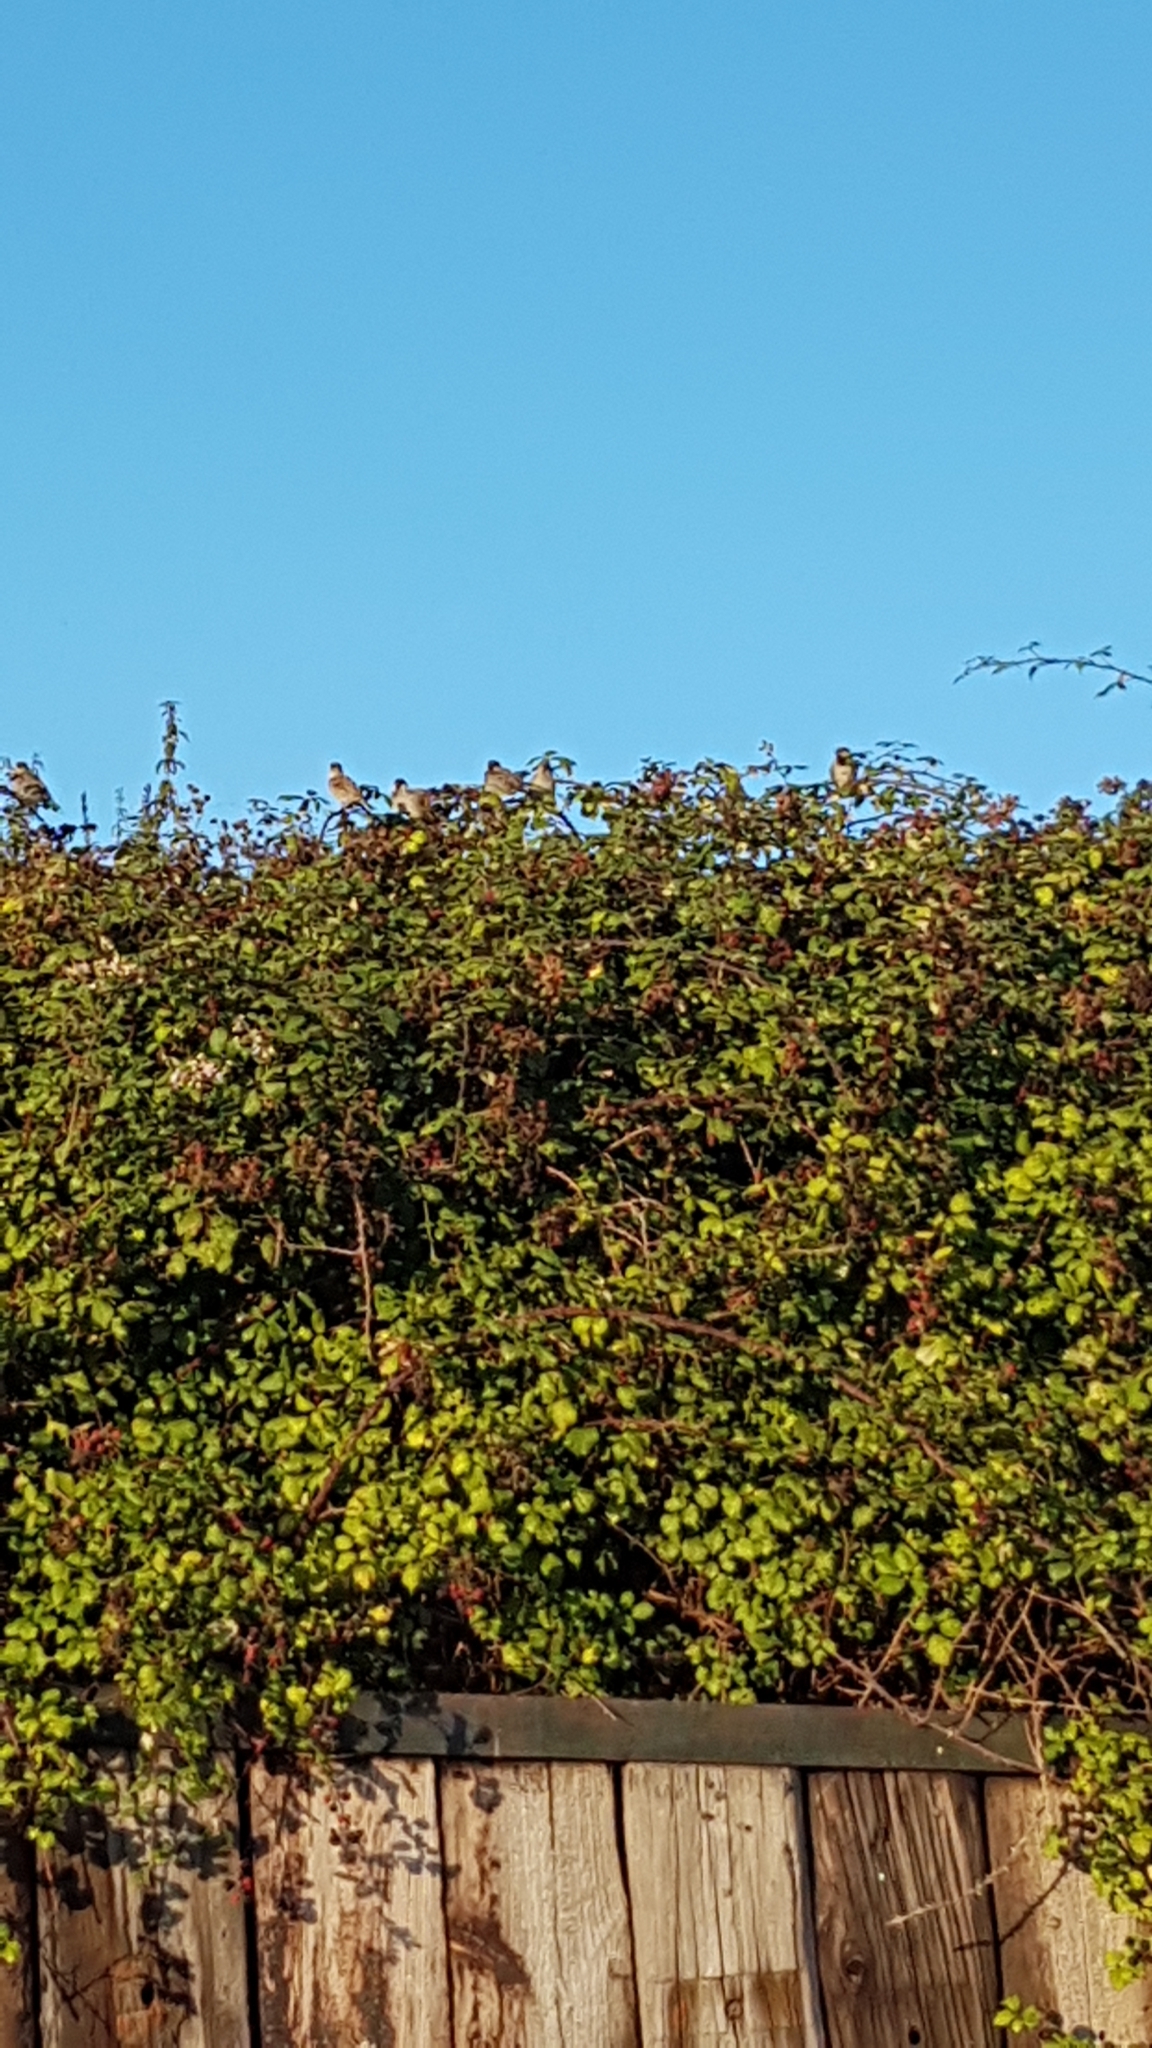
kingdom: Animalia
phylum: Chordata
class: Aves
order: Passeriformes
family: Passeridae
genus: Passer
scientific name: Passer domesticus
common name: House sparrow
